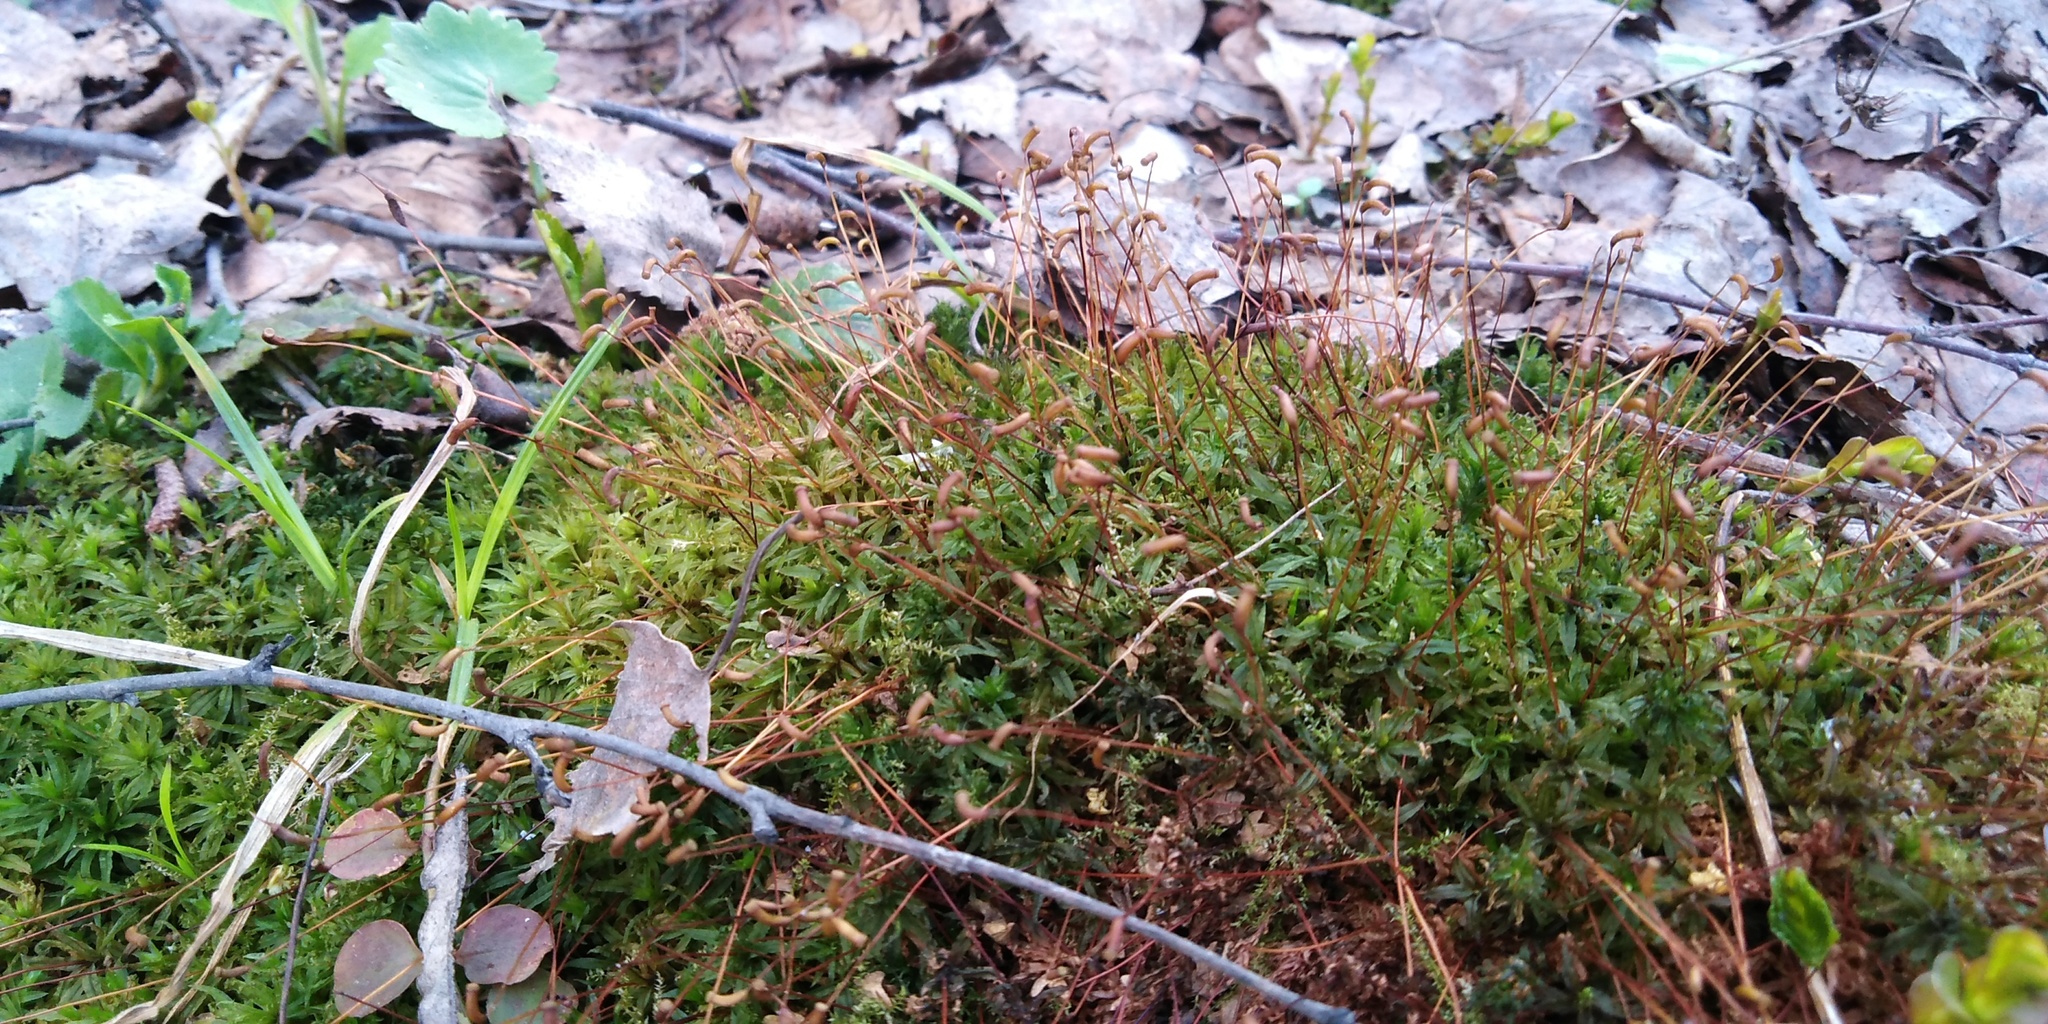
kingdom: Plantae
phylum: Bryophyta
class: Polytrichopsida
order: Polytrichales
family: Polytrichaceae
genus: Atrichum
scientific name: Atrichum undulatum
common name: Common smoothcap
